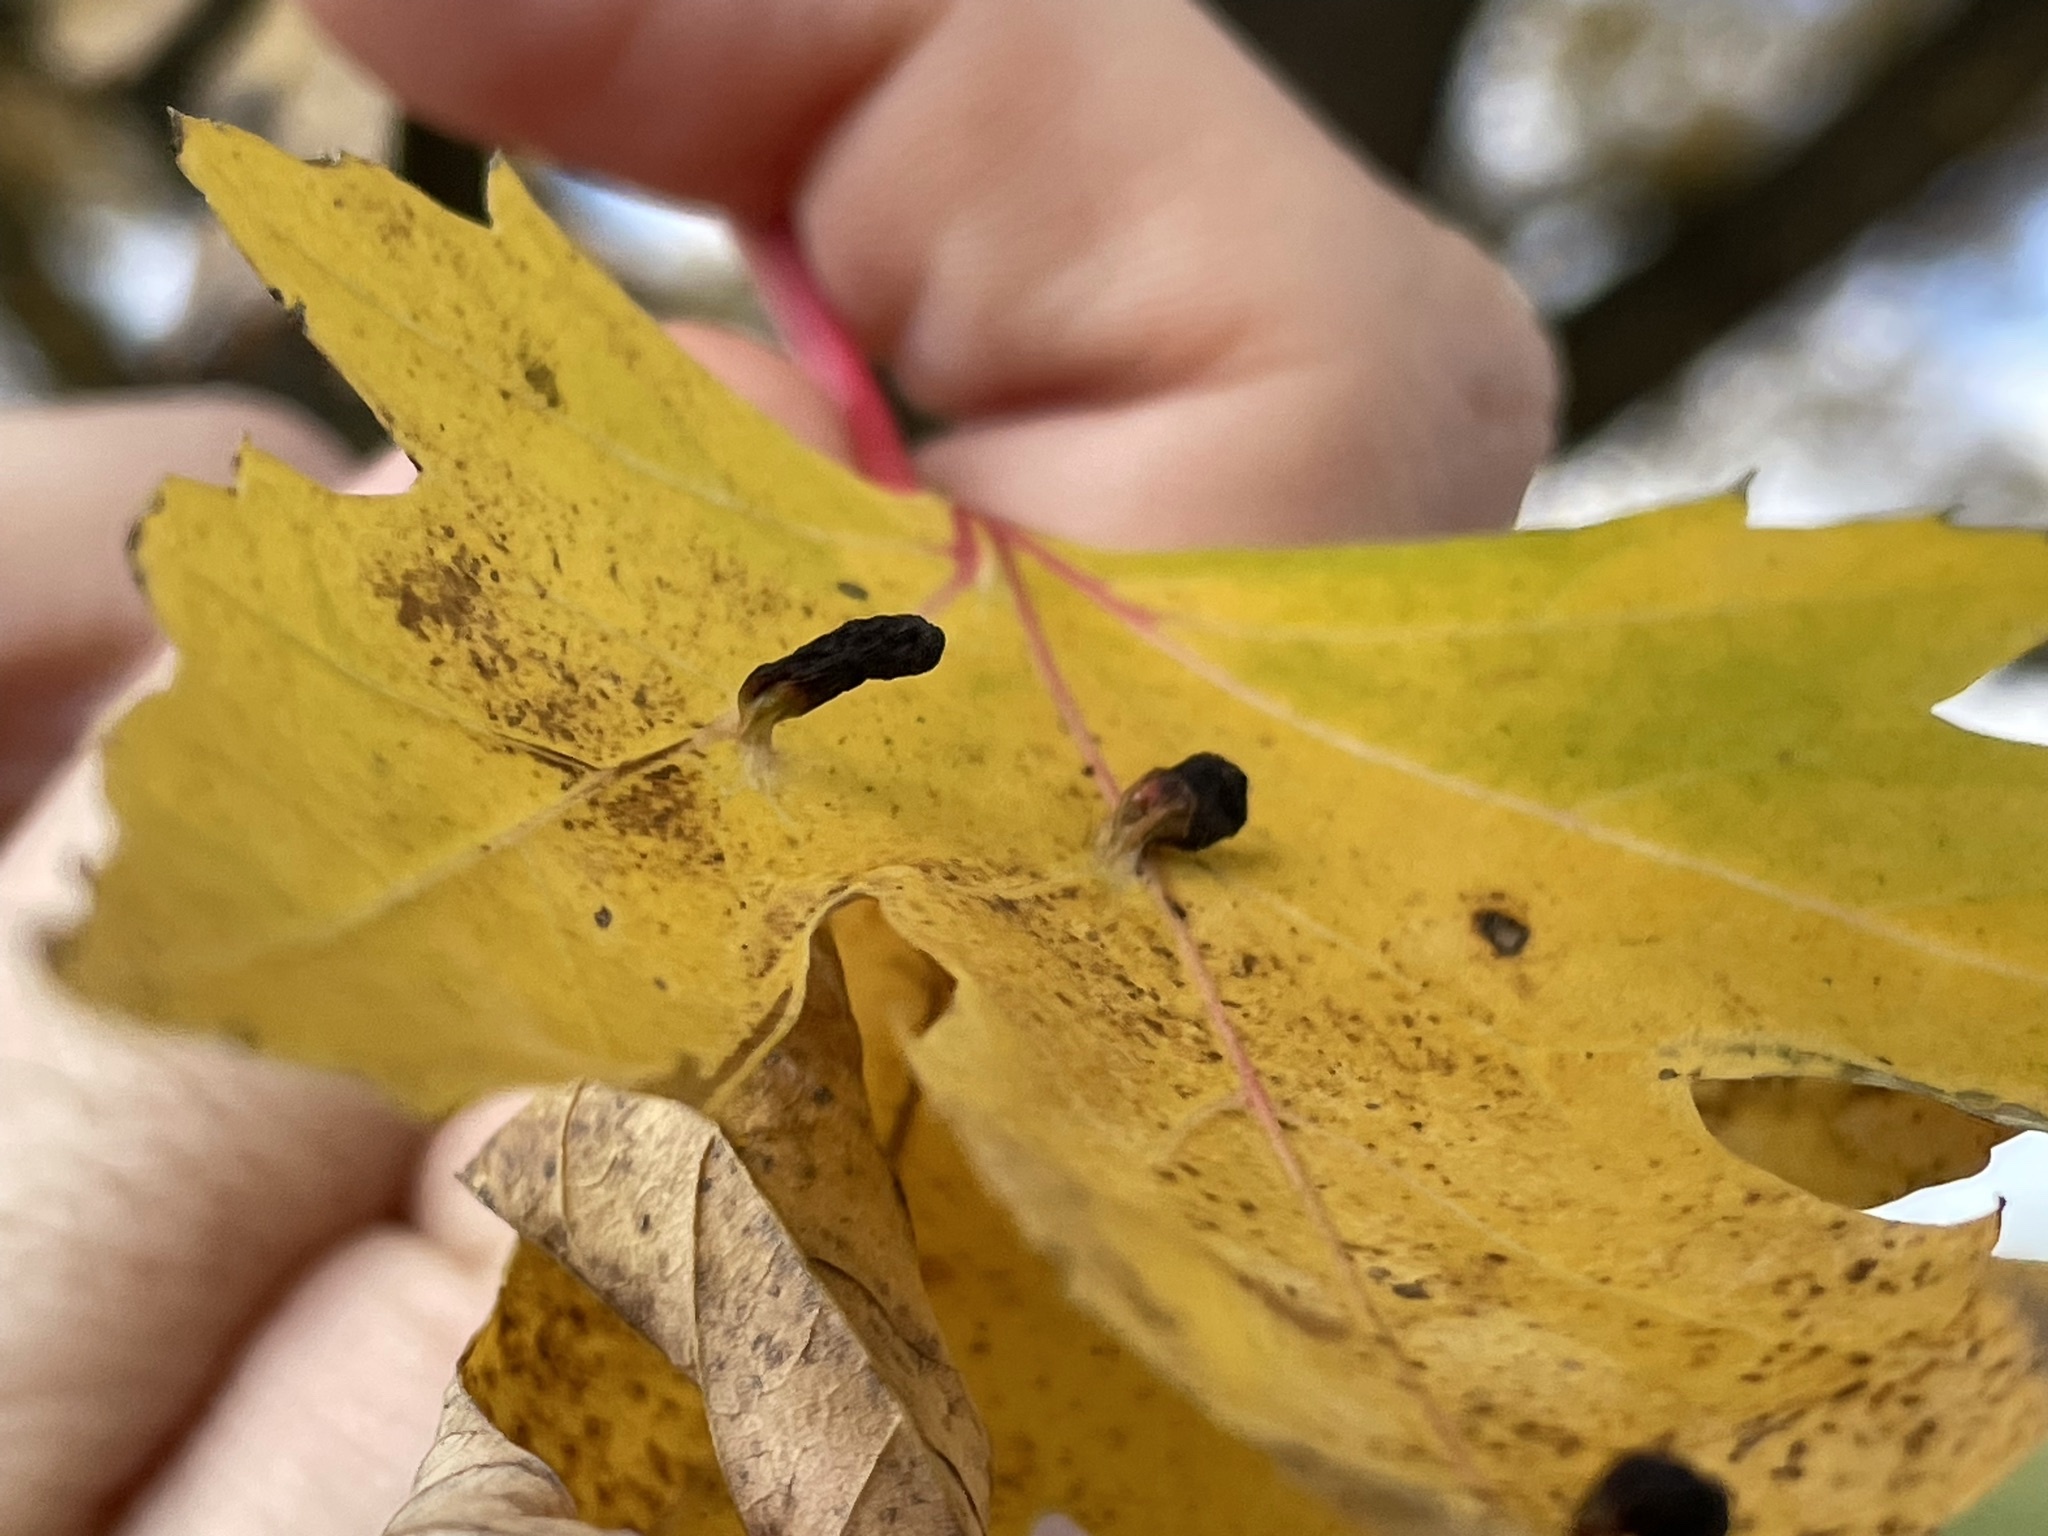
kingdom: Animalia
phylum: Arthropoda
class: Arachnida
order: Trombidiformes
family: Eriophyidae
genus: Vasates
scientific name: Vasates quadripedes
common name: Maple bladder gall mite
